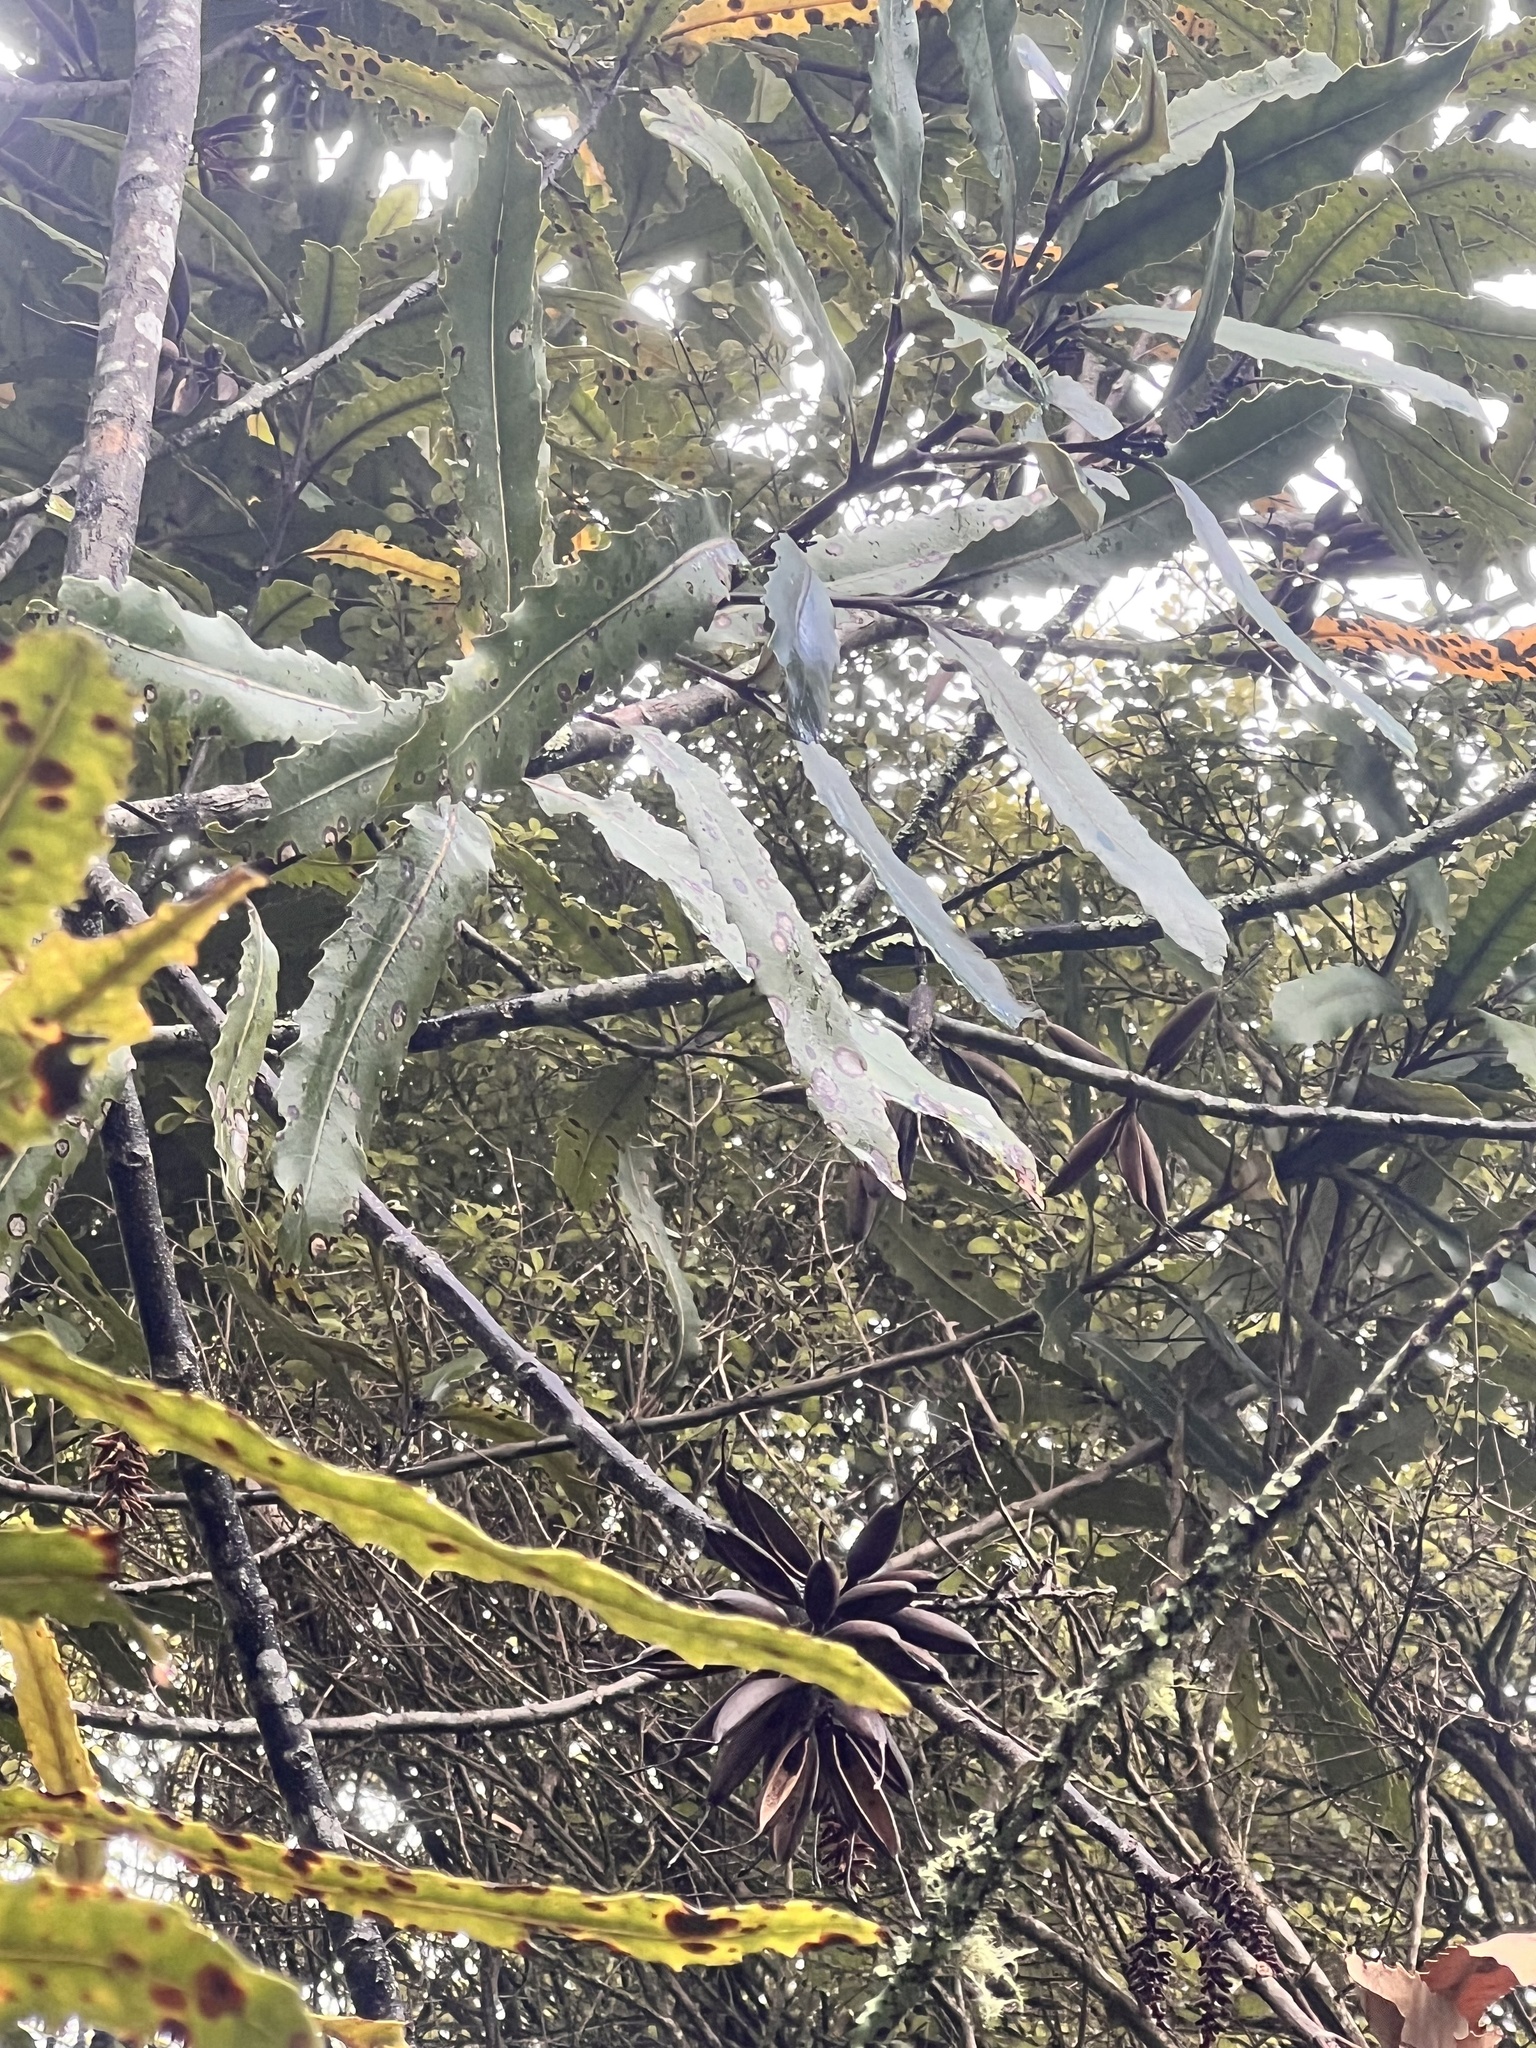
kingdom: Plantae
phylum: Tracheophyta
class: Magnoliopsida
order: Proteales
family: Proteaceae
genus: Knightia
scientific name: Knightia excelsa
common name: New zealand-honeysuckle
